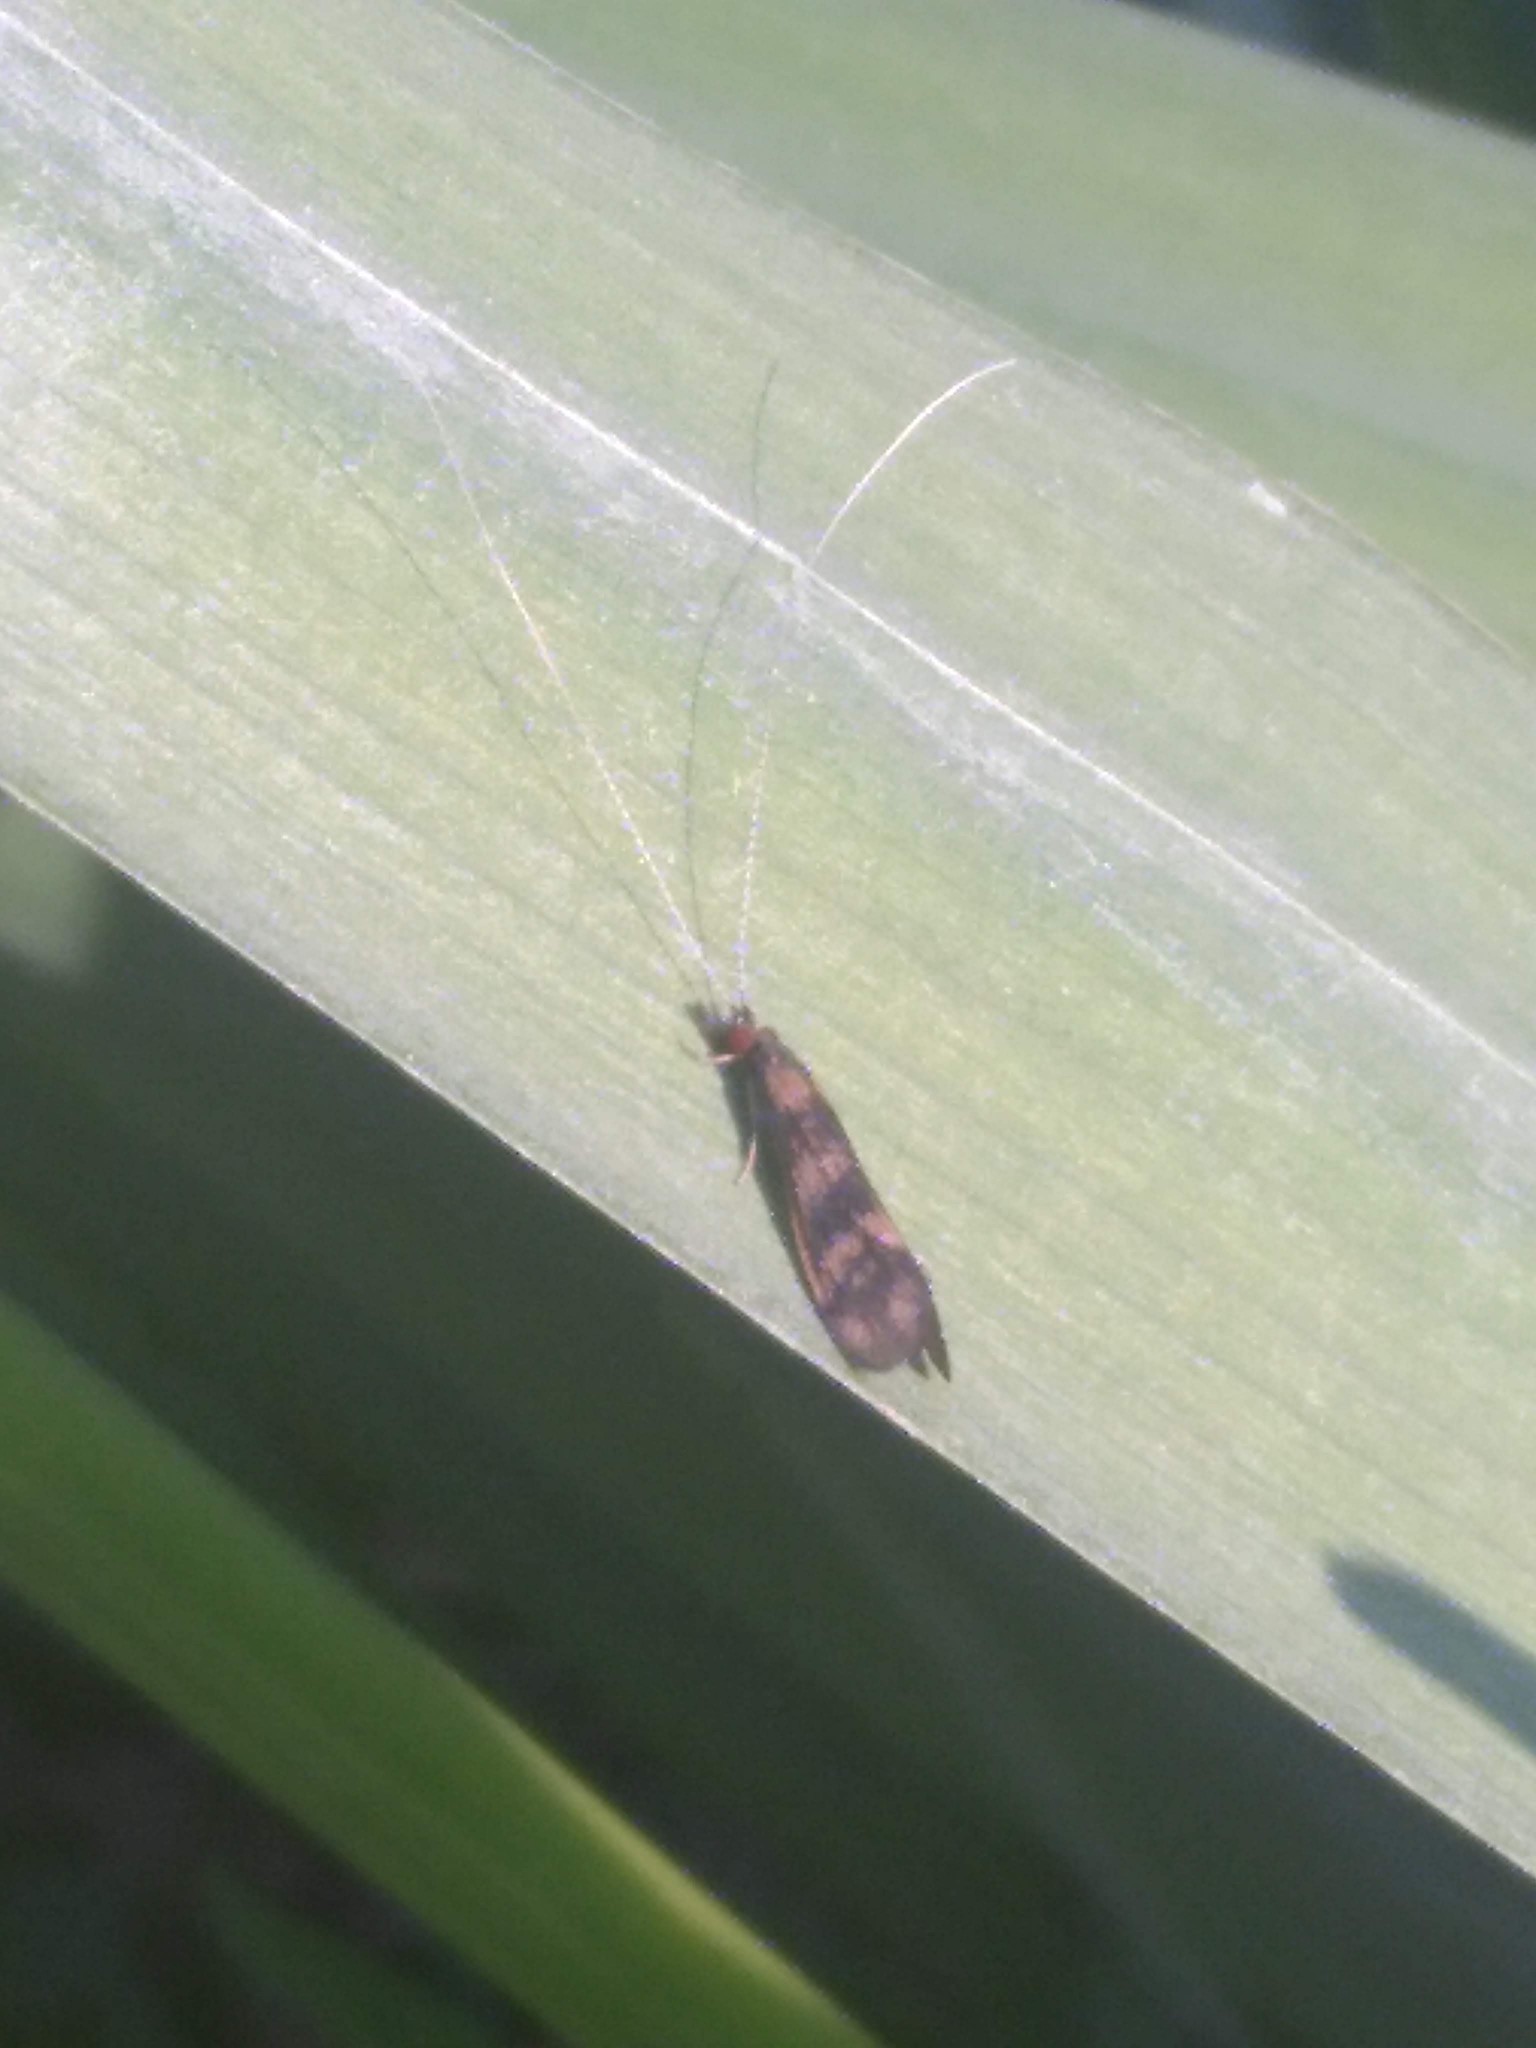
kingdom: Animalia
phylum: Arthropoda
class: Insecta
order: Trichoptera
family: Leptoceridae
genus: Mystacides
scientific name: Mystacides longicornis
